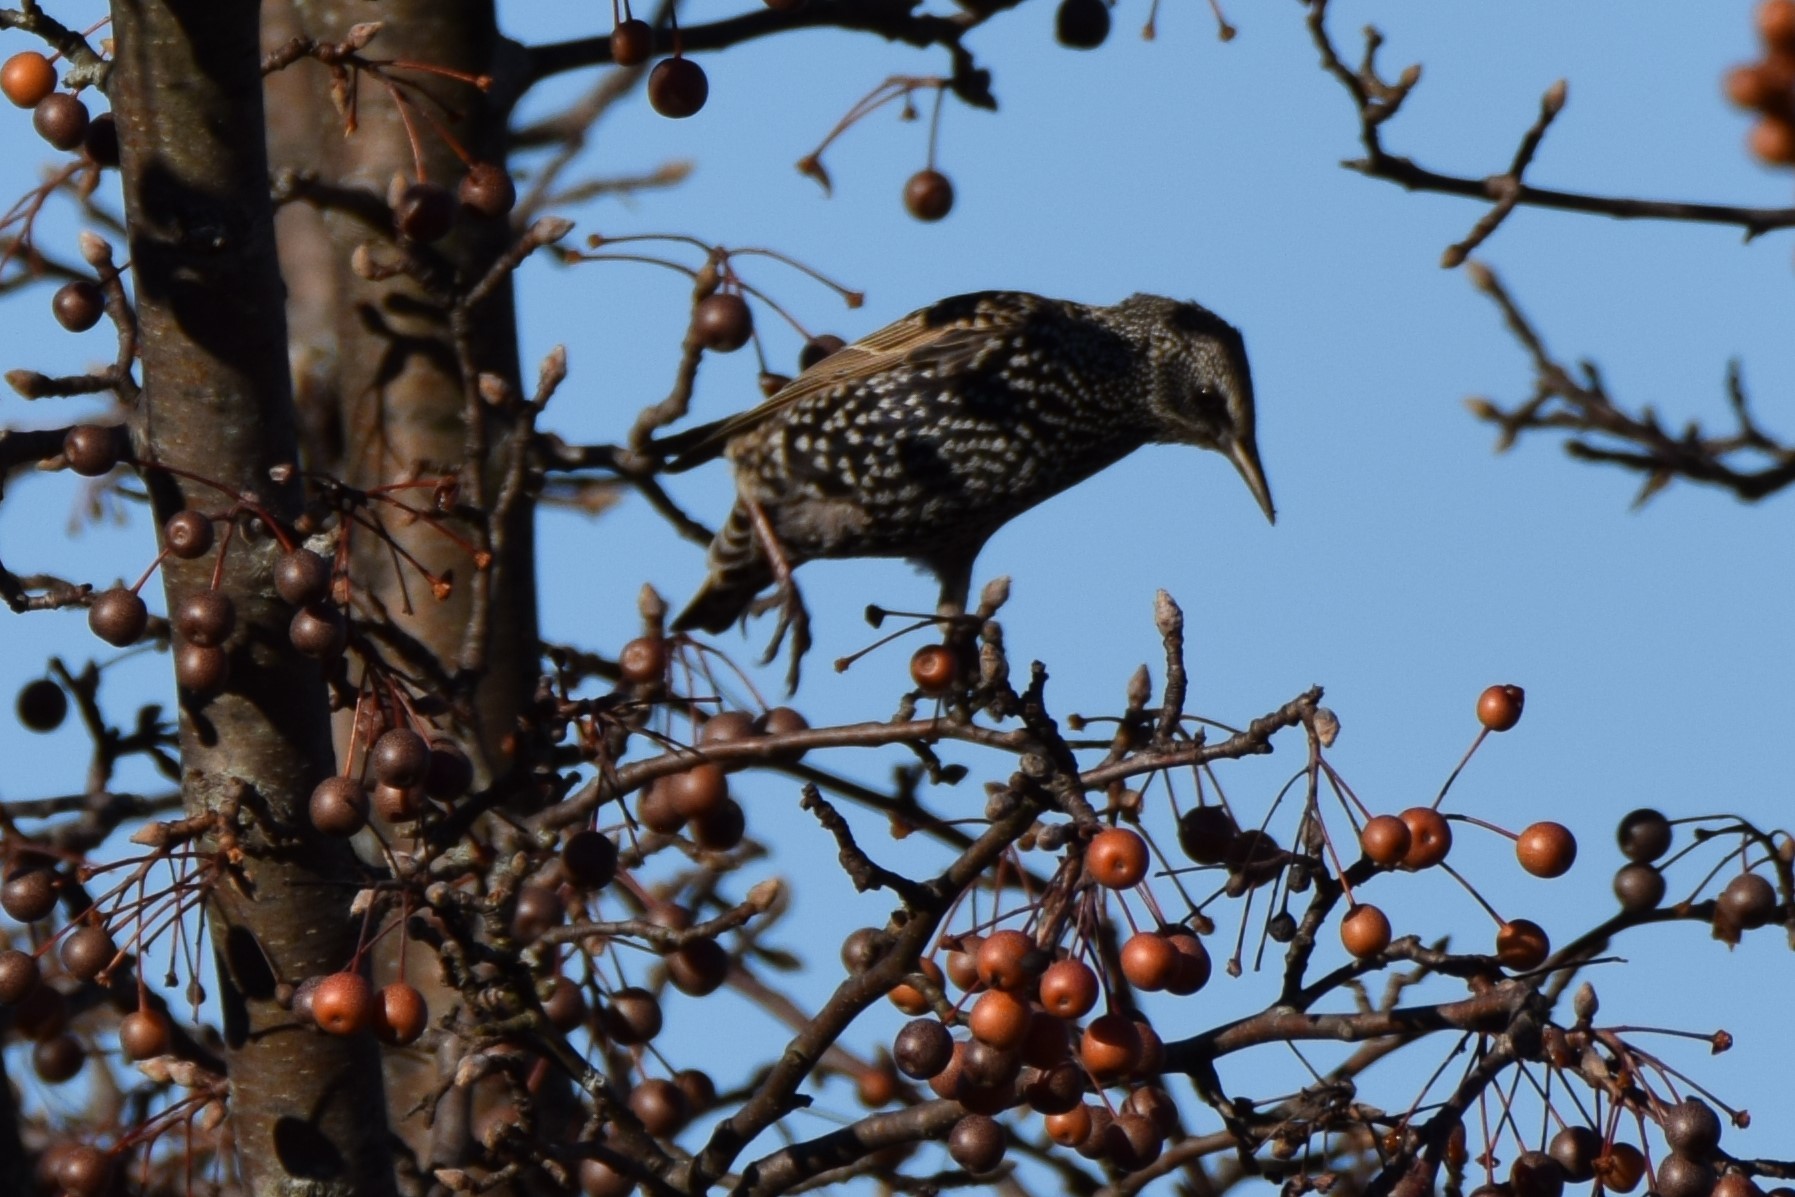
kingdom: Animalia
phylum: Chordata
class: Aves
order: Passeriformes
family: Sturnidae
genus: Sturnus
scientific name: Sturnus vulgaris
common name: Common starling
